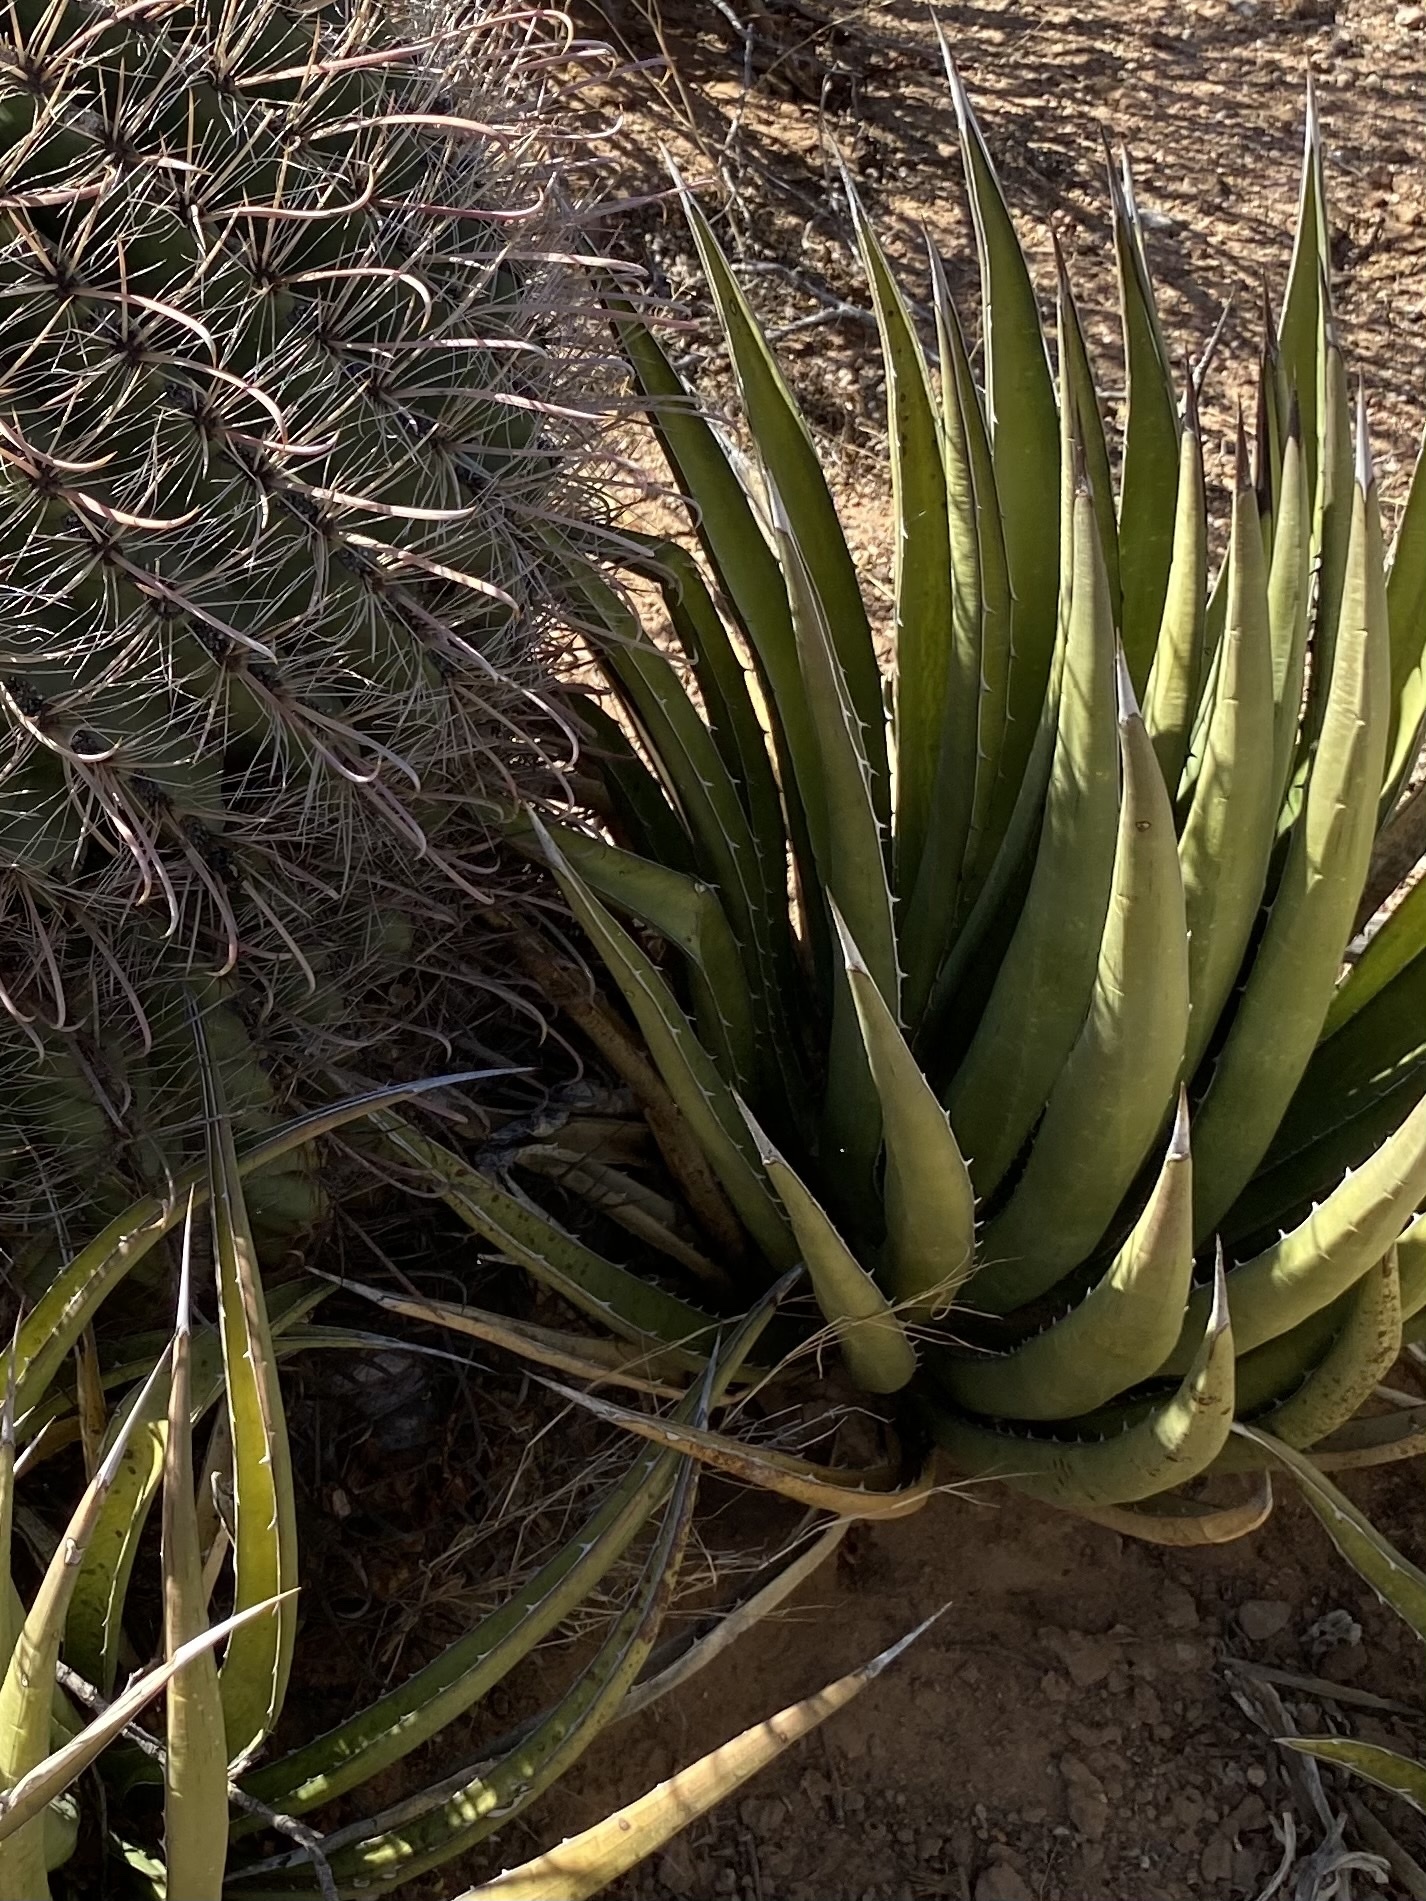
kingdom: Plantae
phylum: Tracheophyta
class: Liliopsida
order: Asparagales
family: Asparagaceae
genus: Agave
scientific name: Agave lechuguilla
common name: Lecheguilla agave
